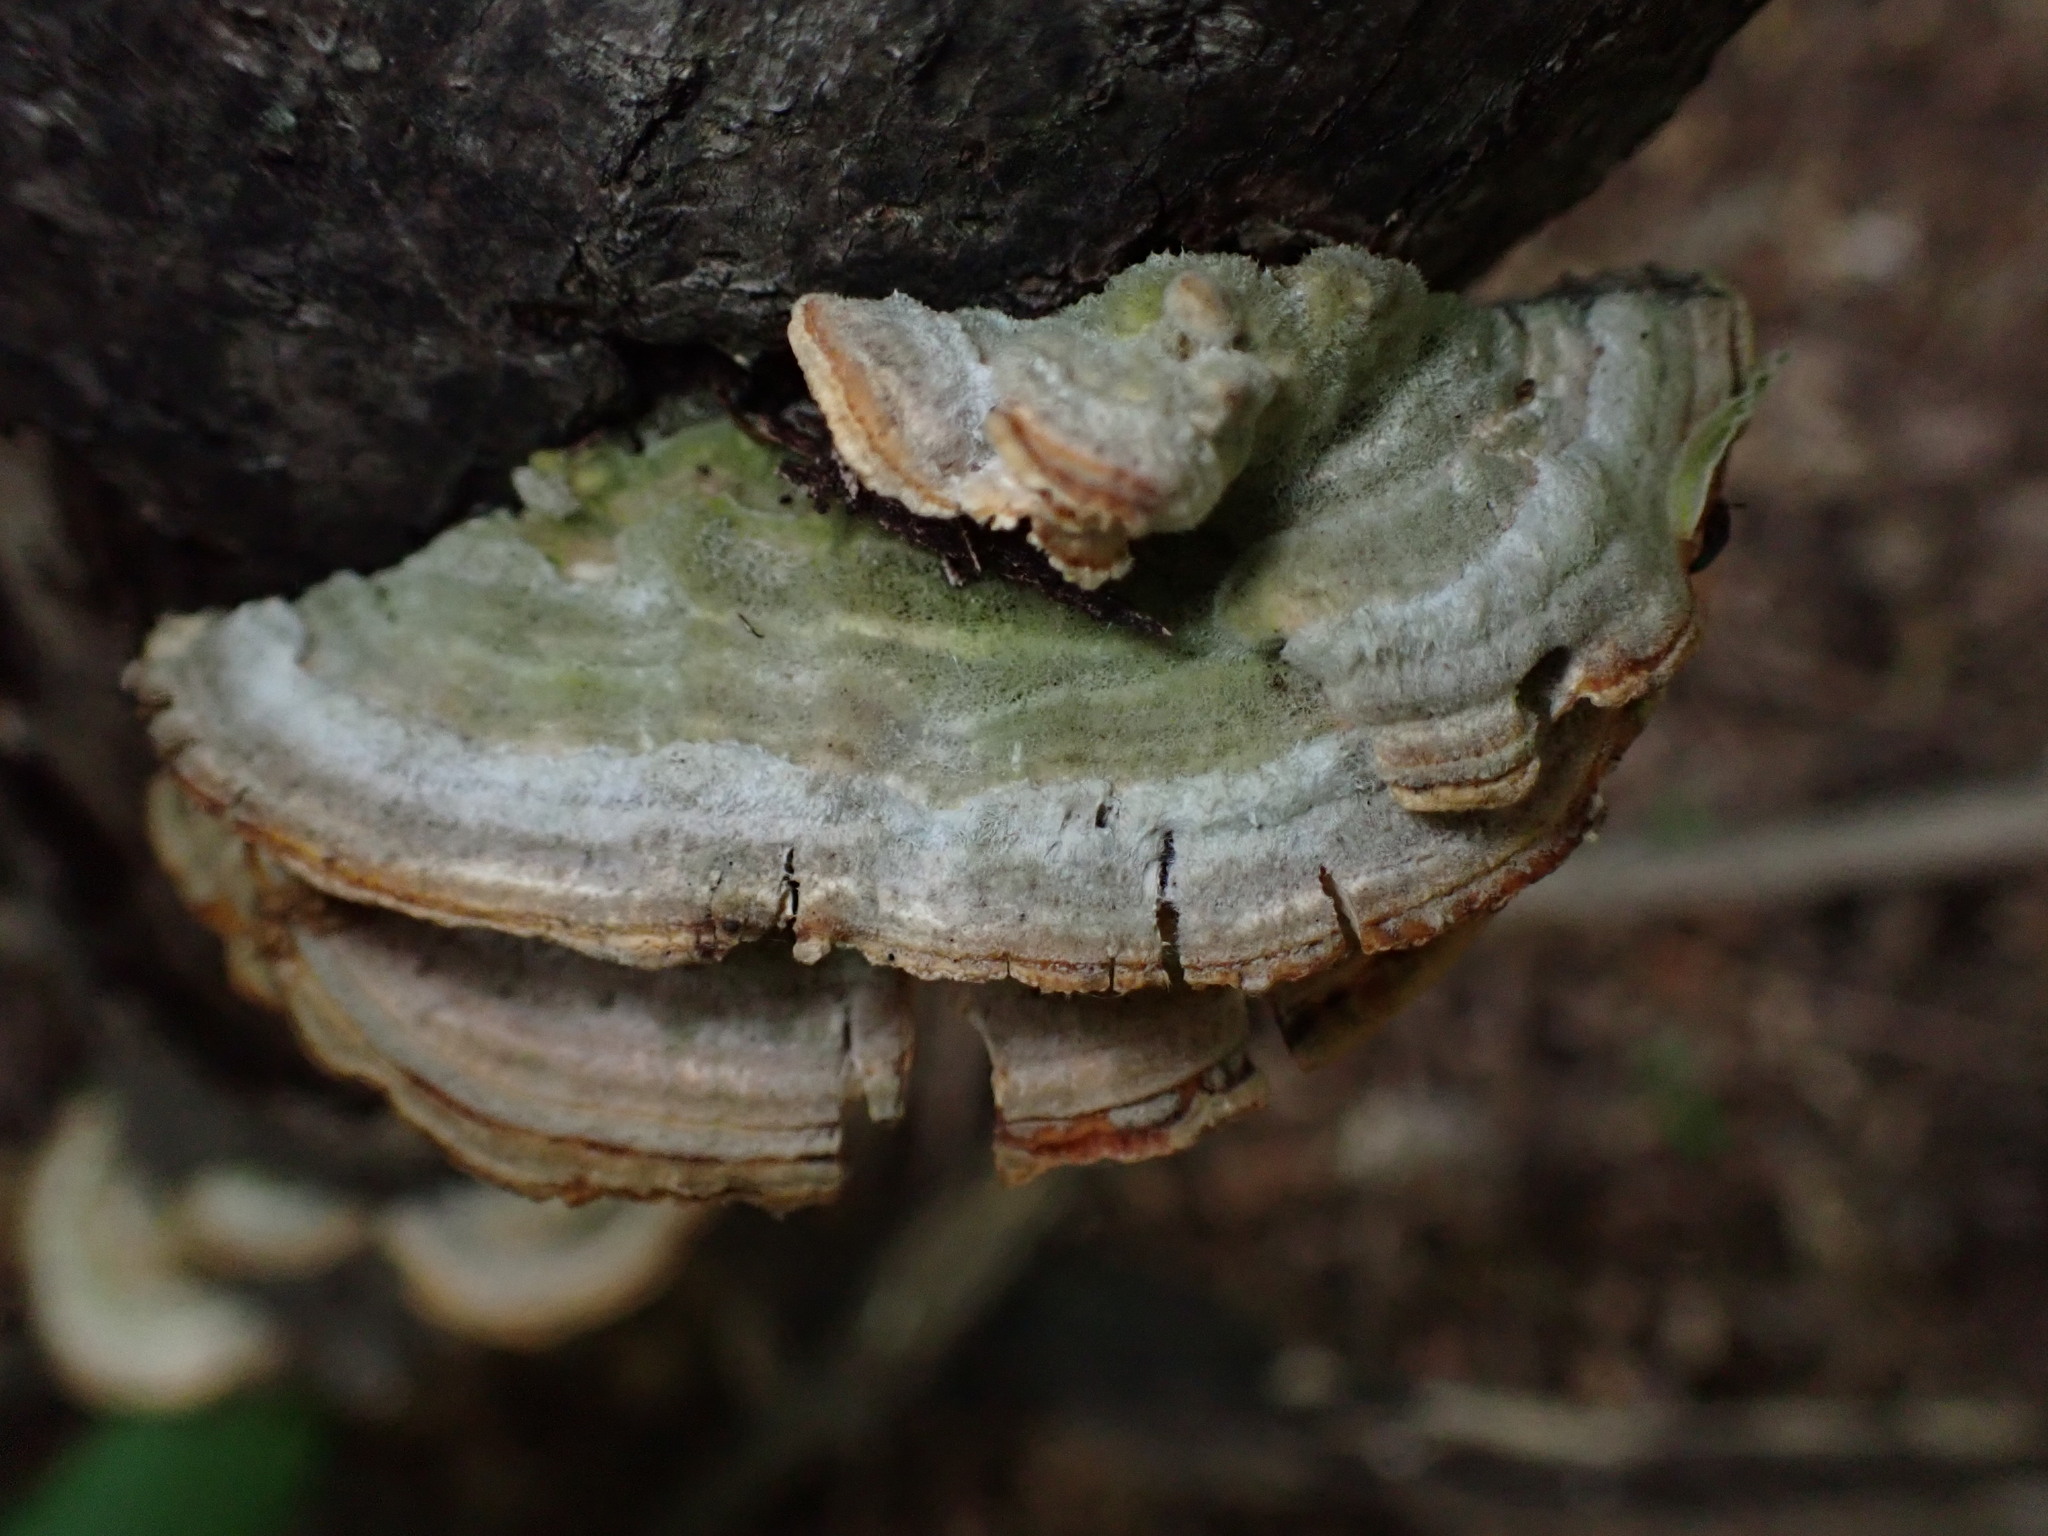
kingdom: Fungi
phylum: Basidiomycota
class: Agaricomycetes
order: Polyporales
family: Polyporaceae
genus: Lenzites
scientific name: Lenzites betulinus
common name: Birch mazegill
